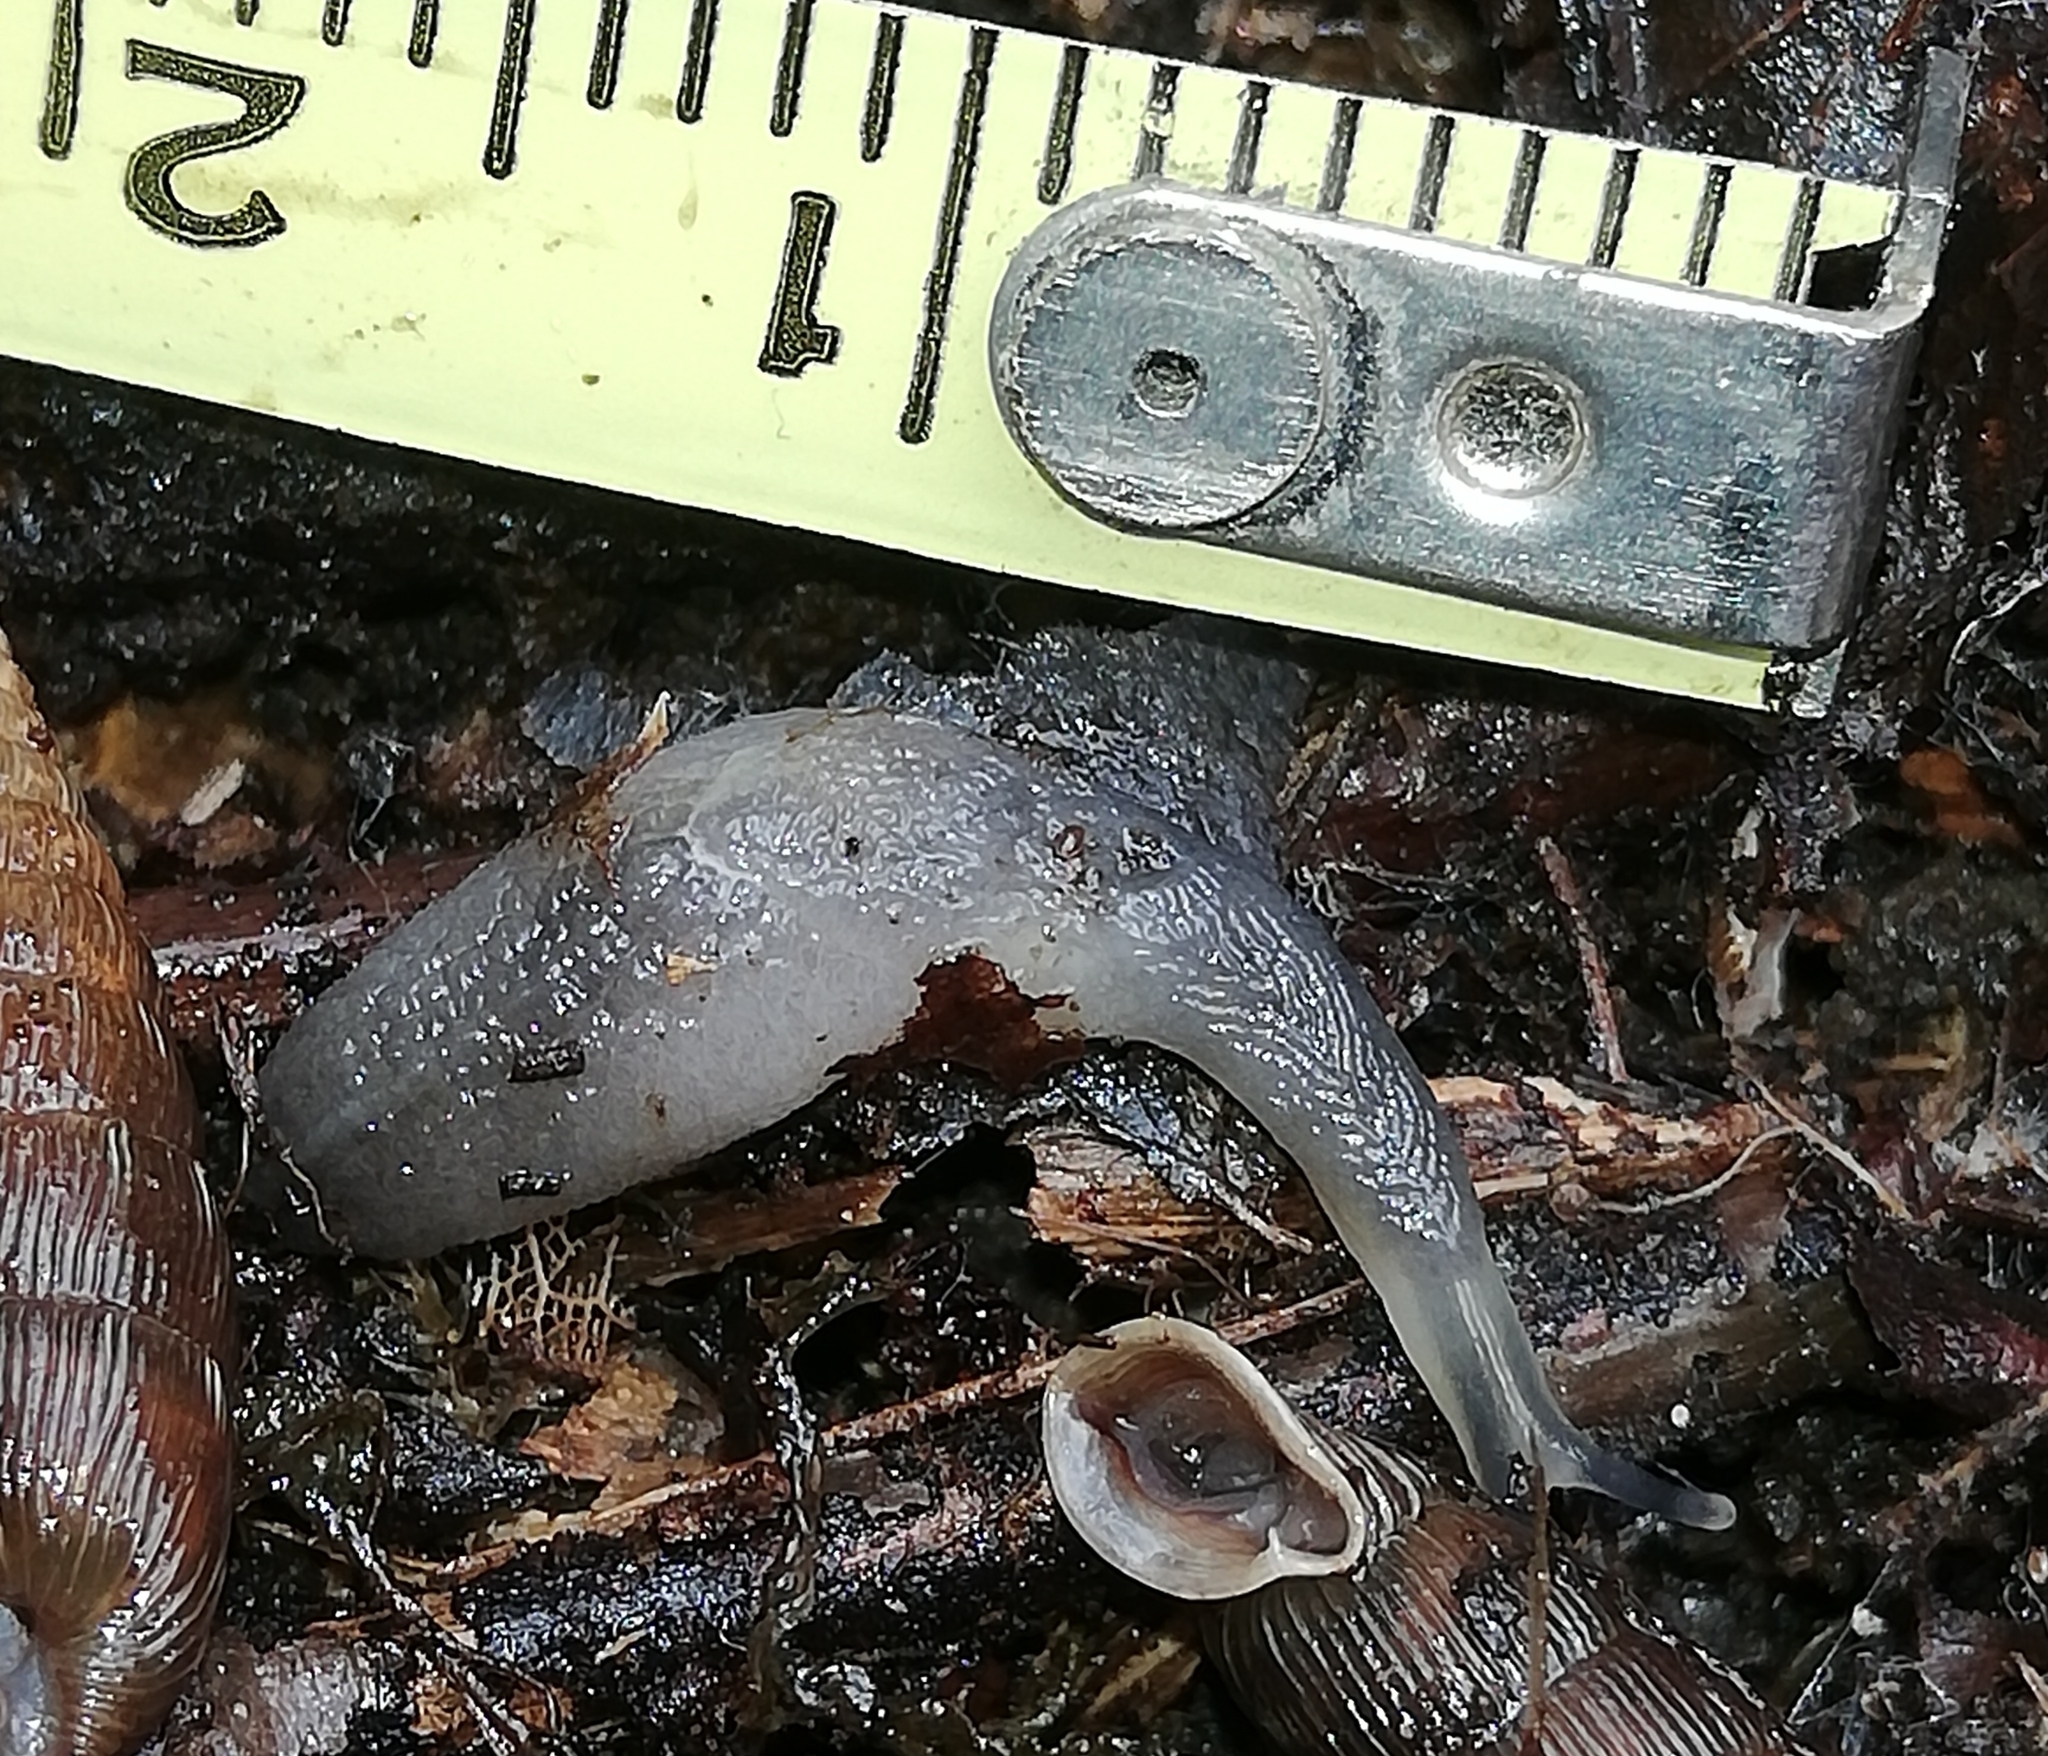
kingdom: Animalia
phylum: Mollusca
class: Gastropoda
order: Stylommatophora
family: Boettgerillidae
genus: Boettgerilla
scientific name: Boettgerilla pallens
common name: Worm slug
